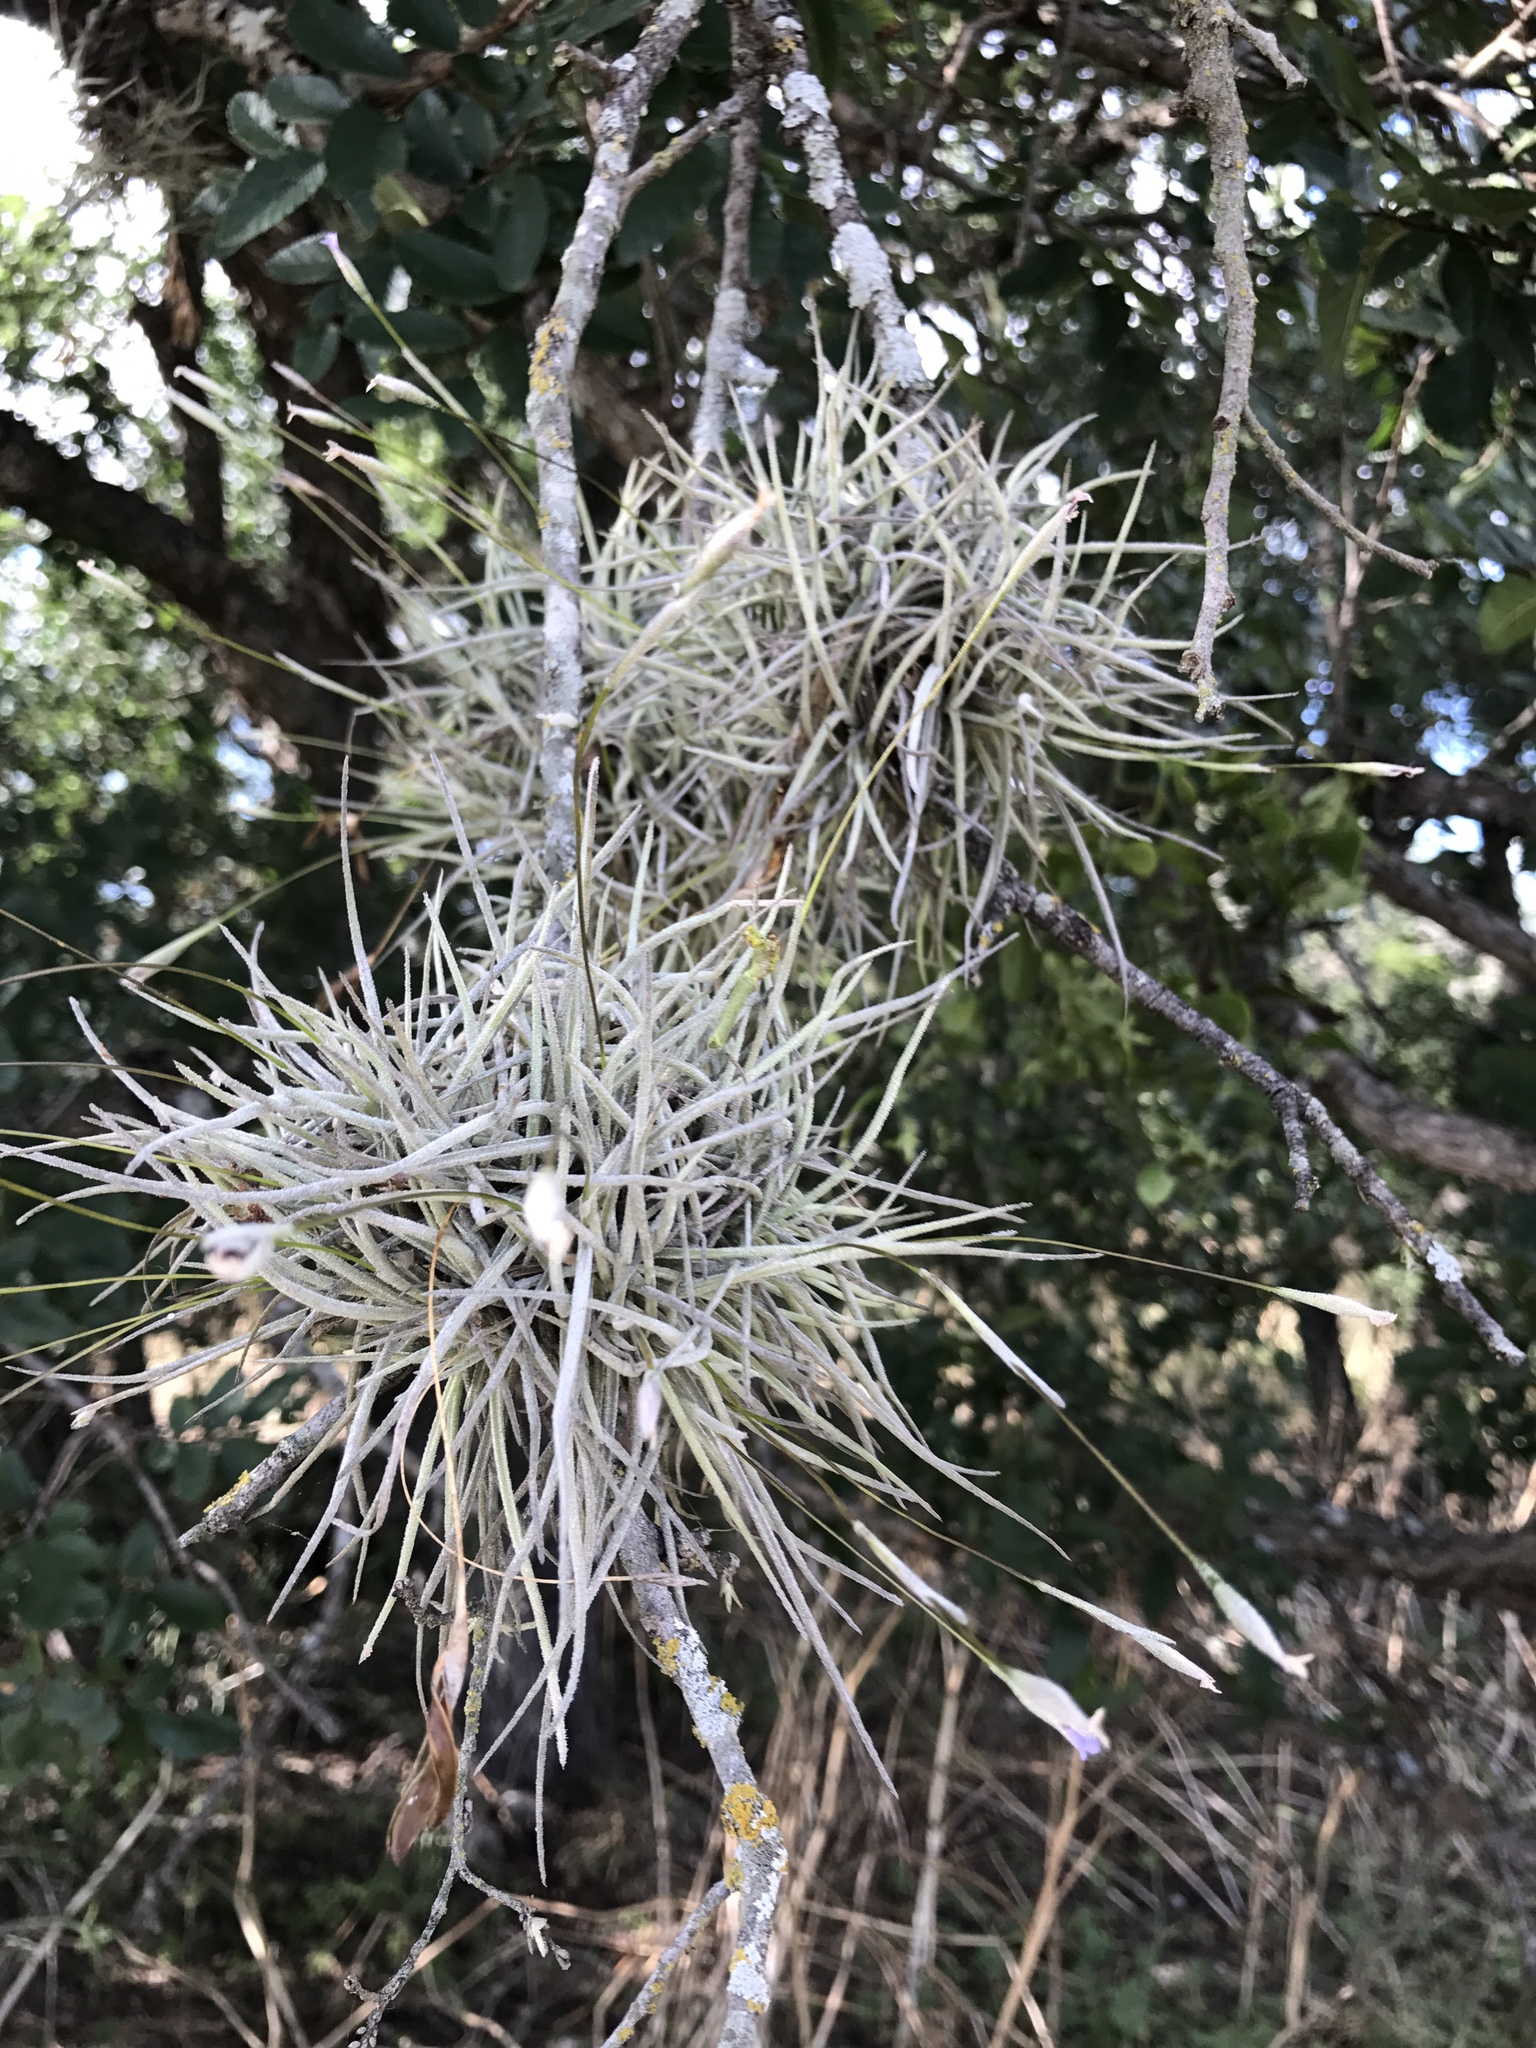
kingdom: Plantae
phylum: Tracheophyta
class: Liliopsida
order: Poales
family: Bromeliaceae
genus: Tillandsia
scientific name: Tillandsia recurvata
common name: Small ballmoss
